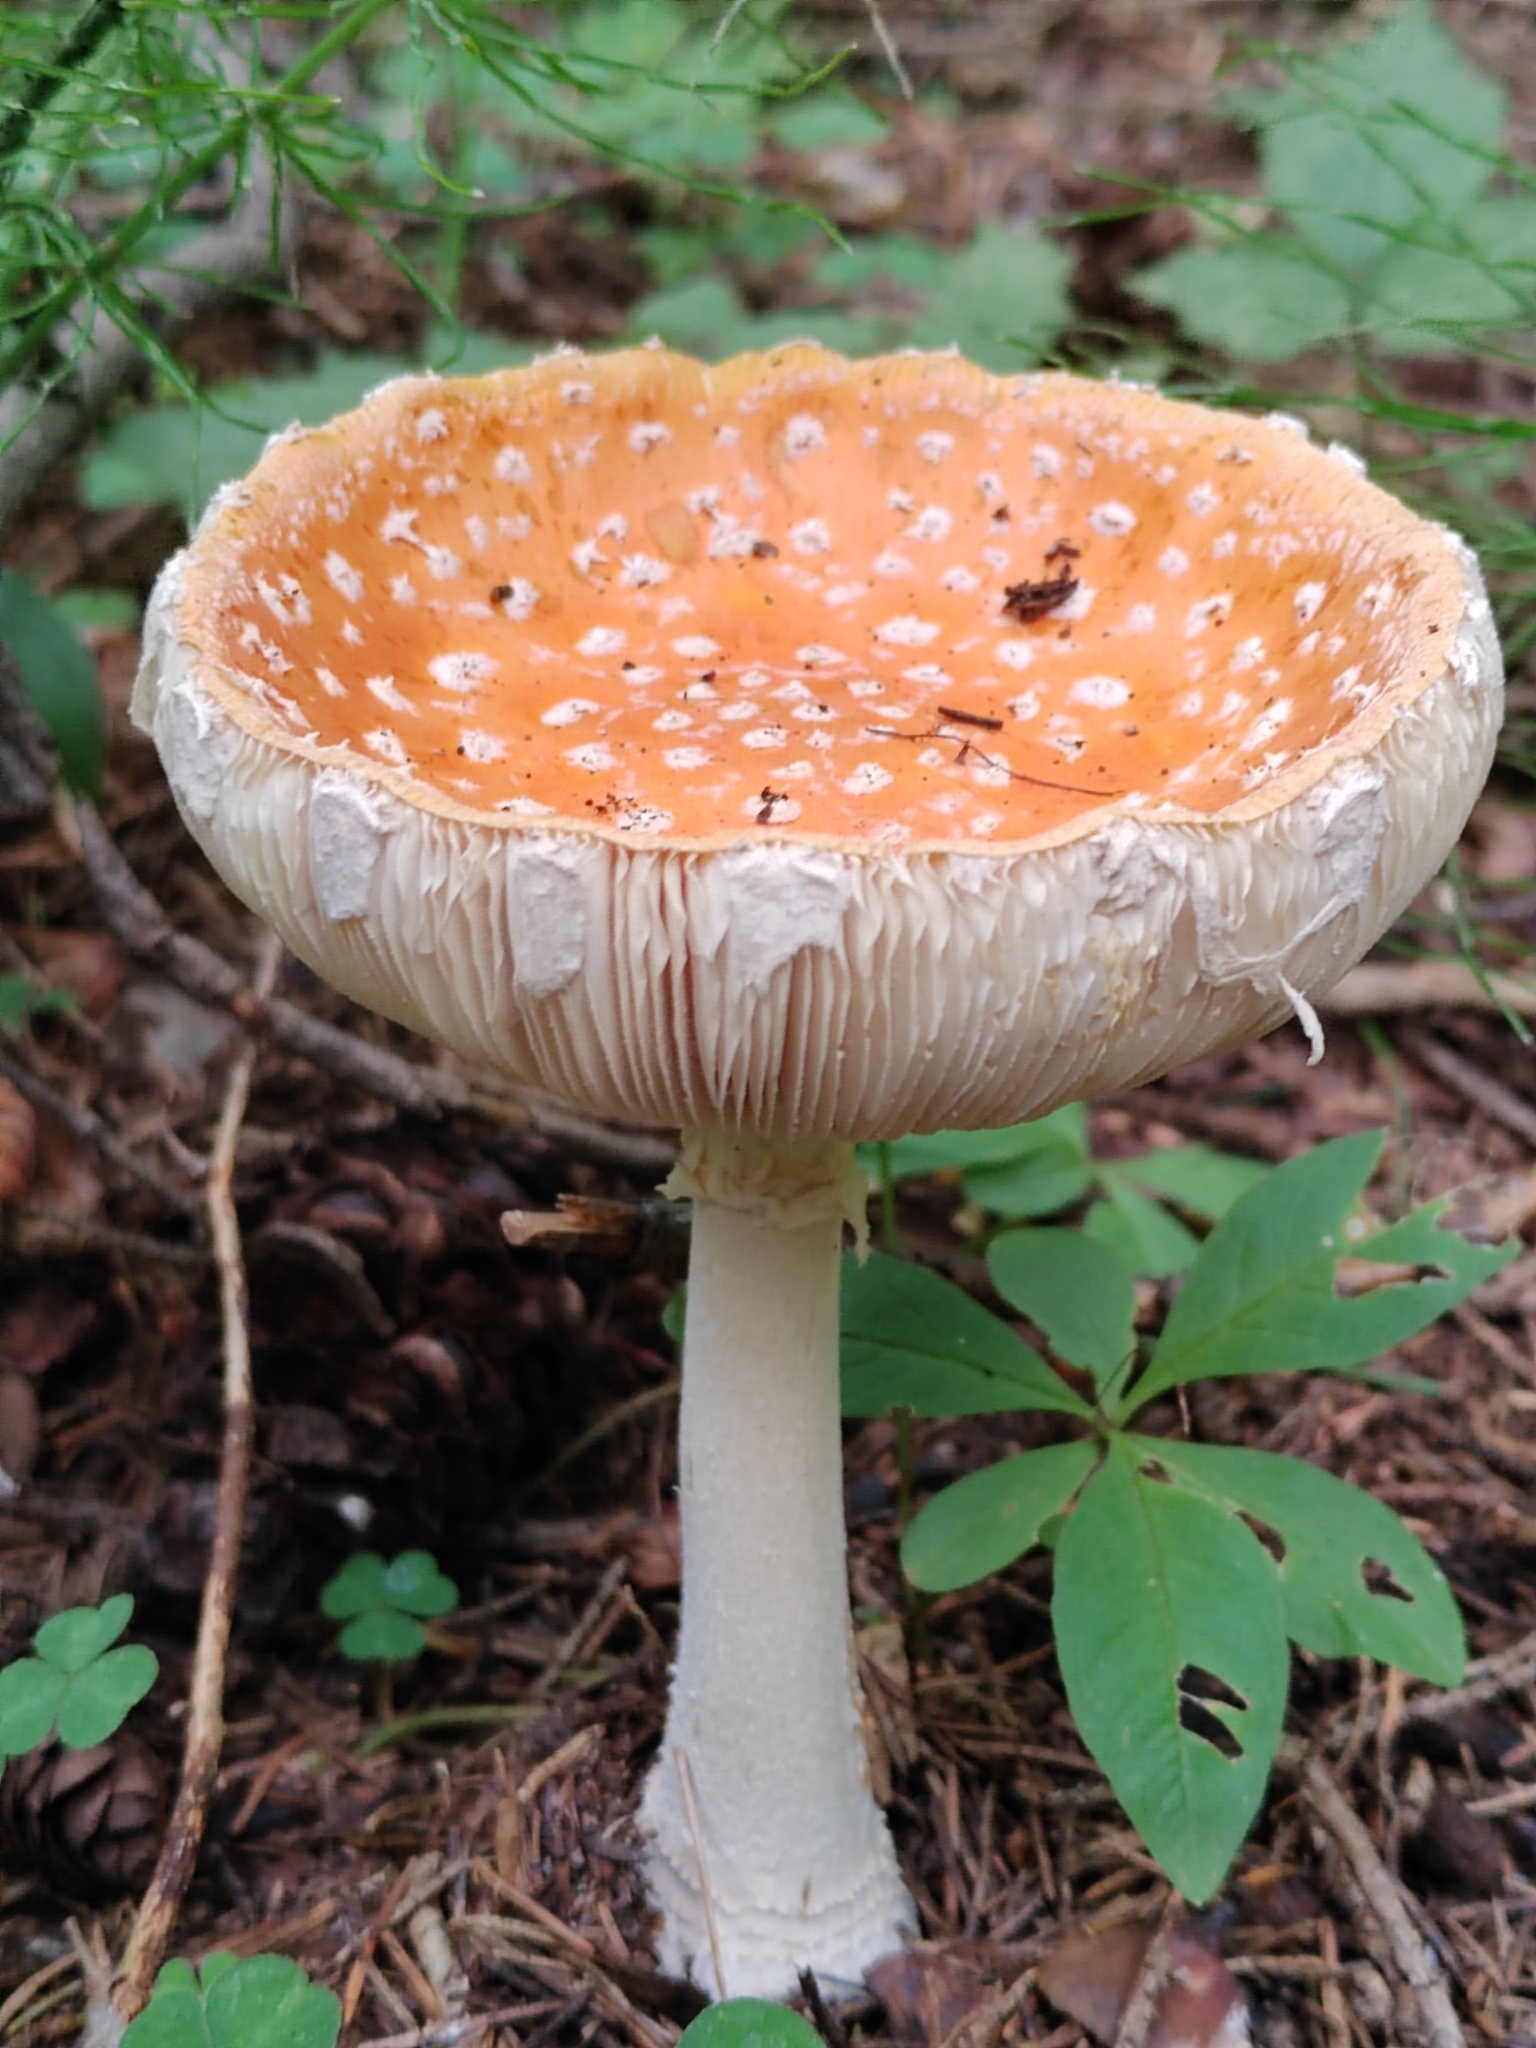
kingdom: Fungi
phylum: Basidiomycota
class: Agaricomycetes
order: Agaricales
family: Amanitaceae
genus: Amanita
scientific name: Amanita muscaria
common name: Fly agaric
